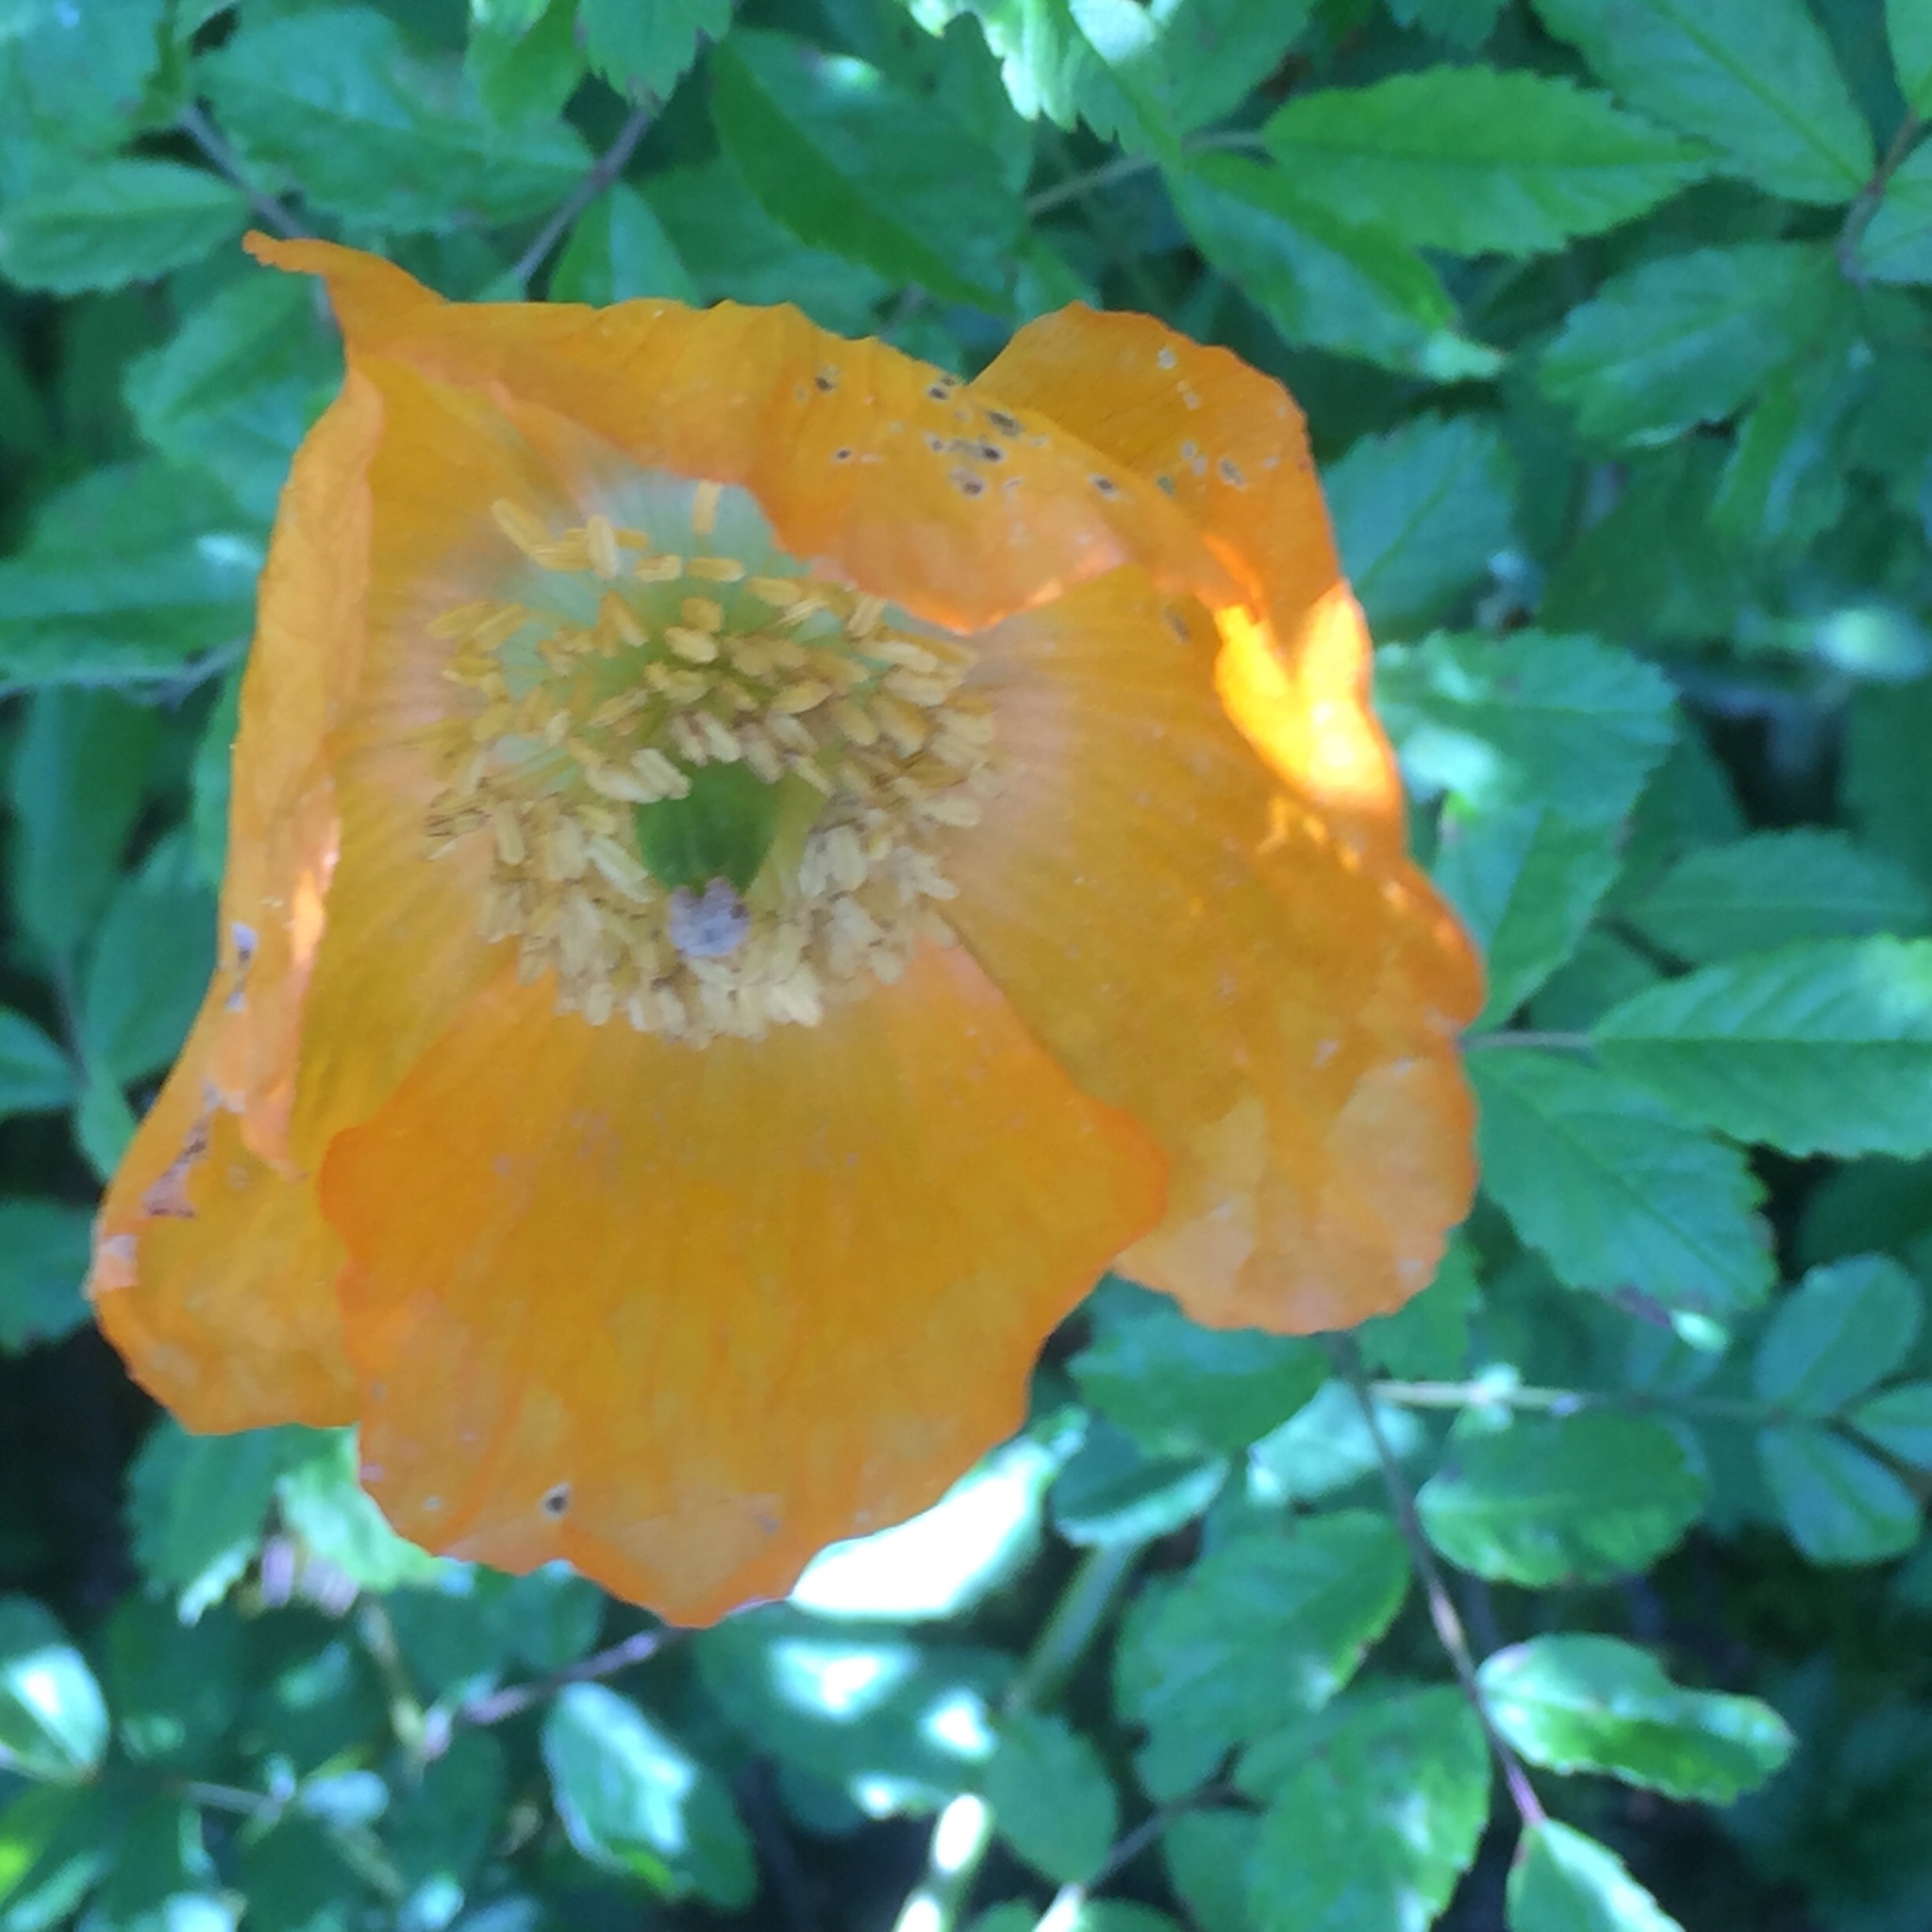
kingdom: Plantae
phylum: Tracheophyta
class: Magnoliopsida
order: Ranunculales
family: Papaveraceae
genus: Papaver
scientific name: Papaver cambricum
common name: Poppy
